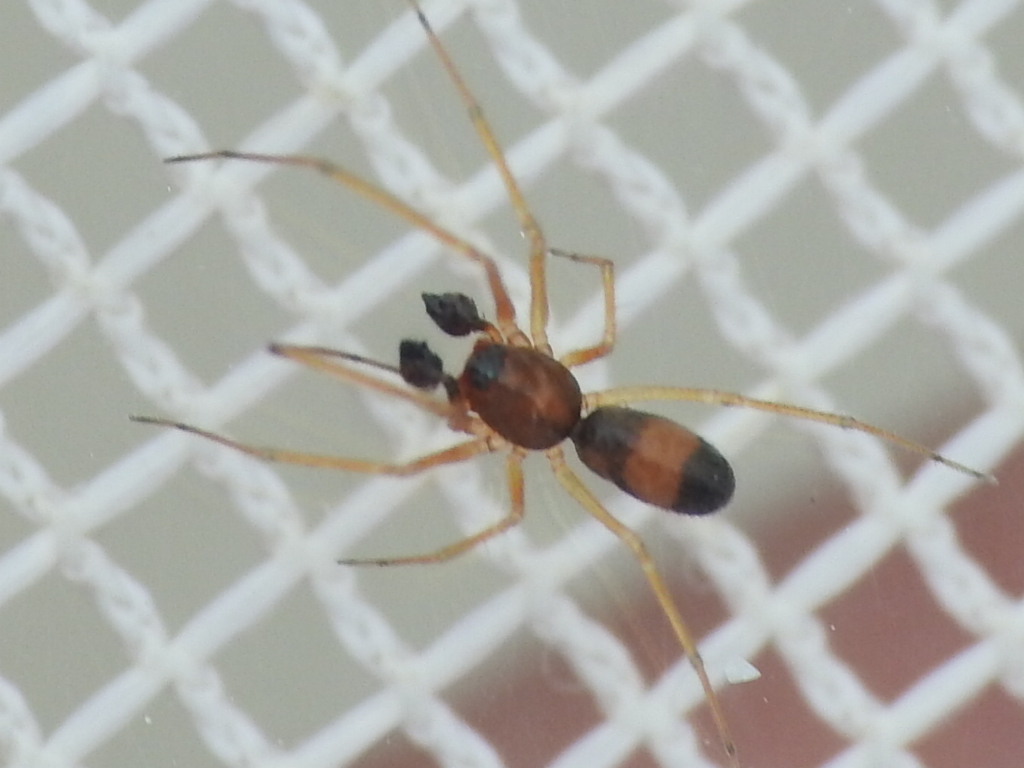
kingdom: Animalia
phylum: Arthropoda
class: Arachnida
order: Araneae
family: Linyphiidae
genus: Tennesseellum
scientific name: Tennesseellum formica
